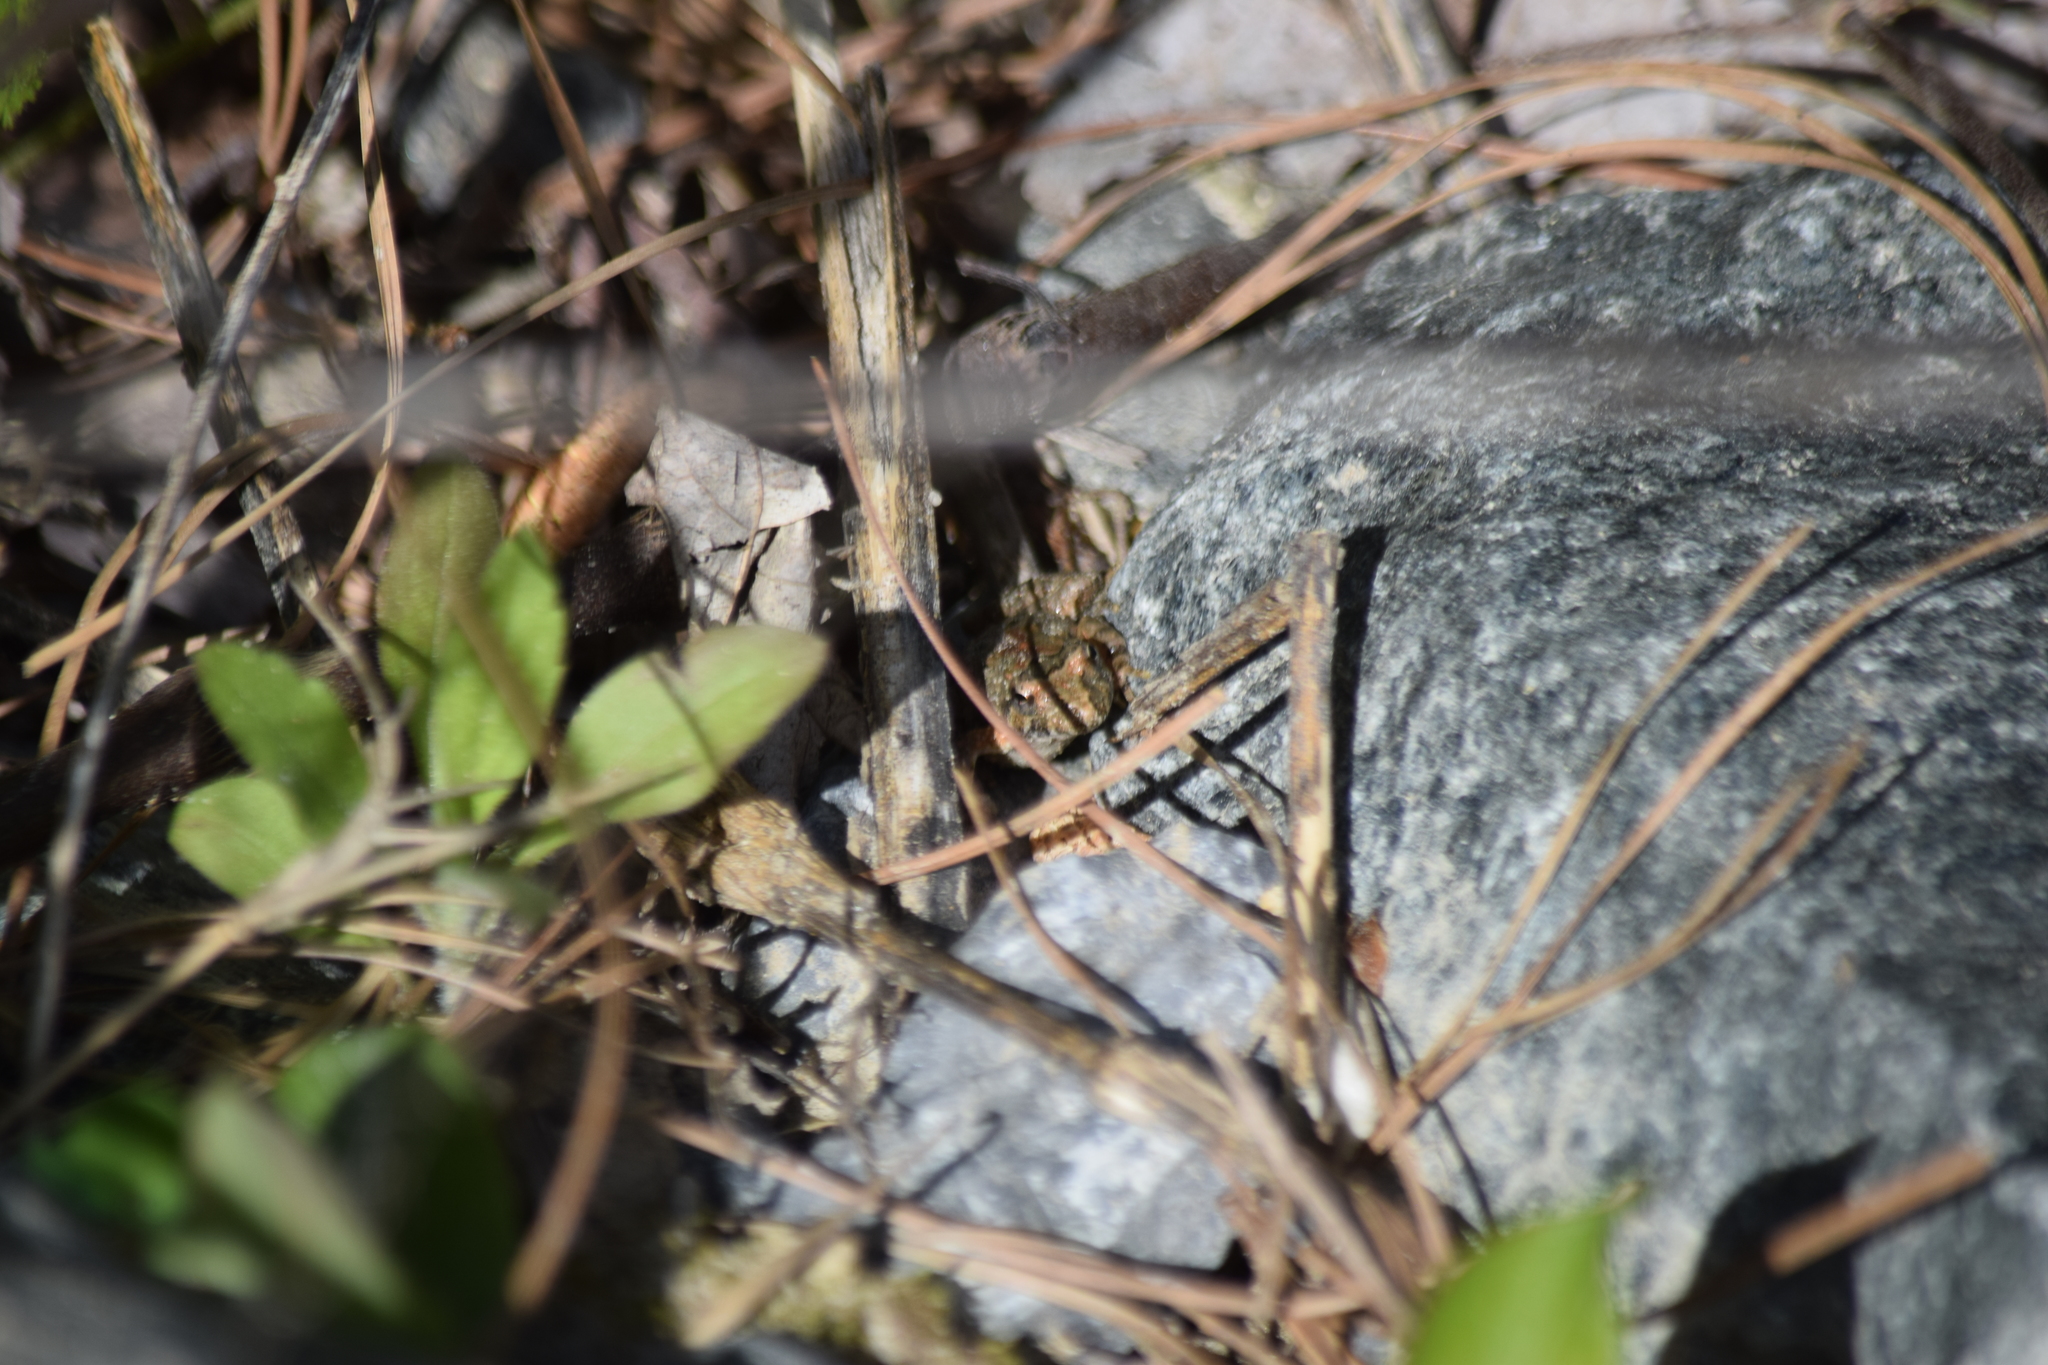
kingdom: Animalia
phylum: Chordata
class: Amphibia
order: Anura
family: Hylidae
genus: Acris
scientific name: Acris crepitans
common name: Northern cricket frog
